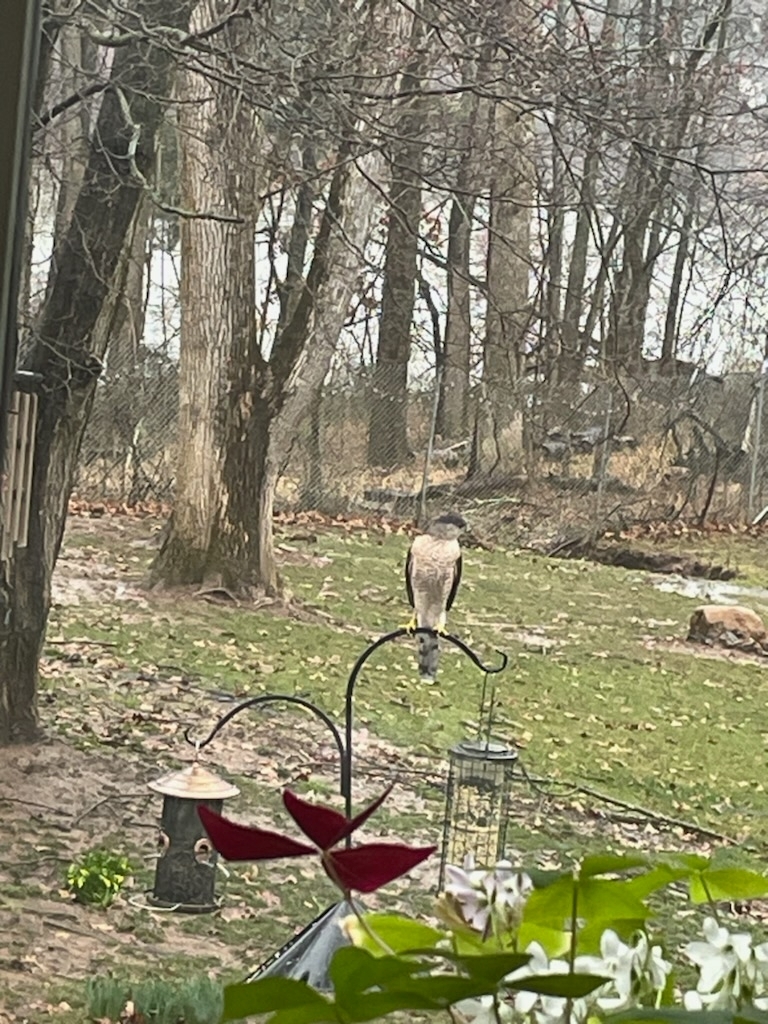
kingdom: Animalia
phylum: Chordata
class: Aves
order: Accipitriformes
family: Accipitridae
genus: Accipiter
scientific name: Accipiter cooperii
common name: Cooper's hawk
